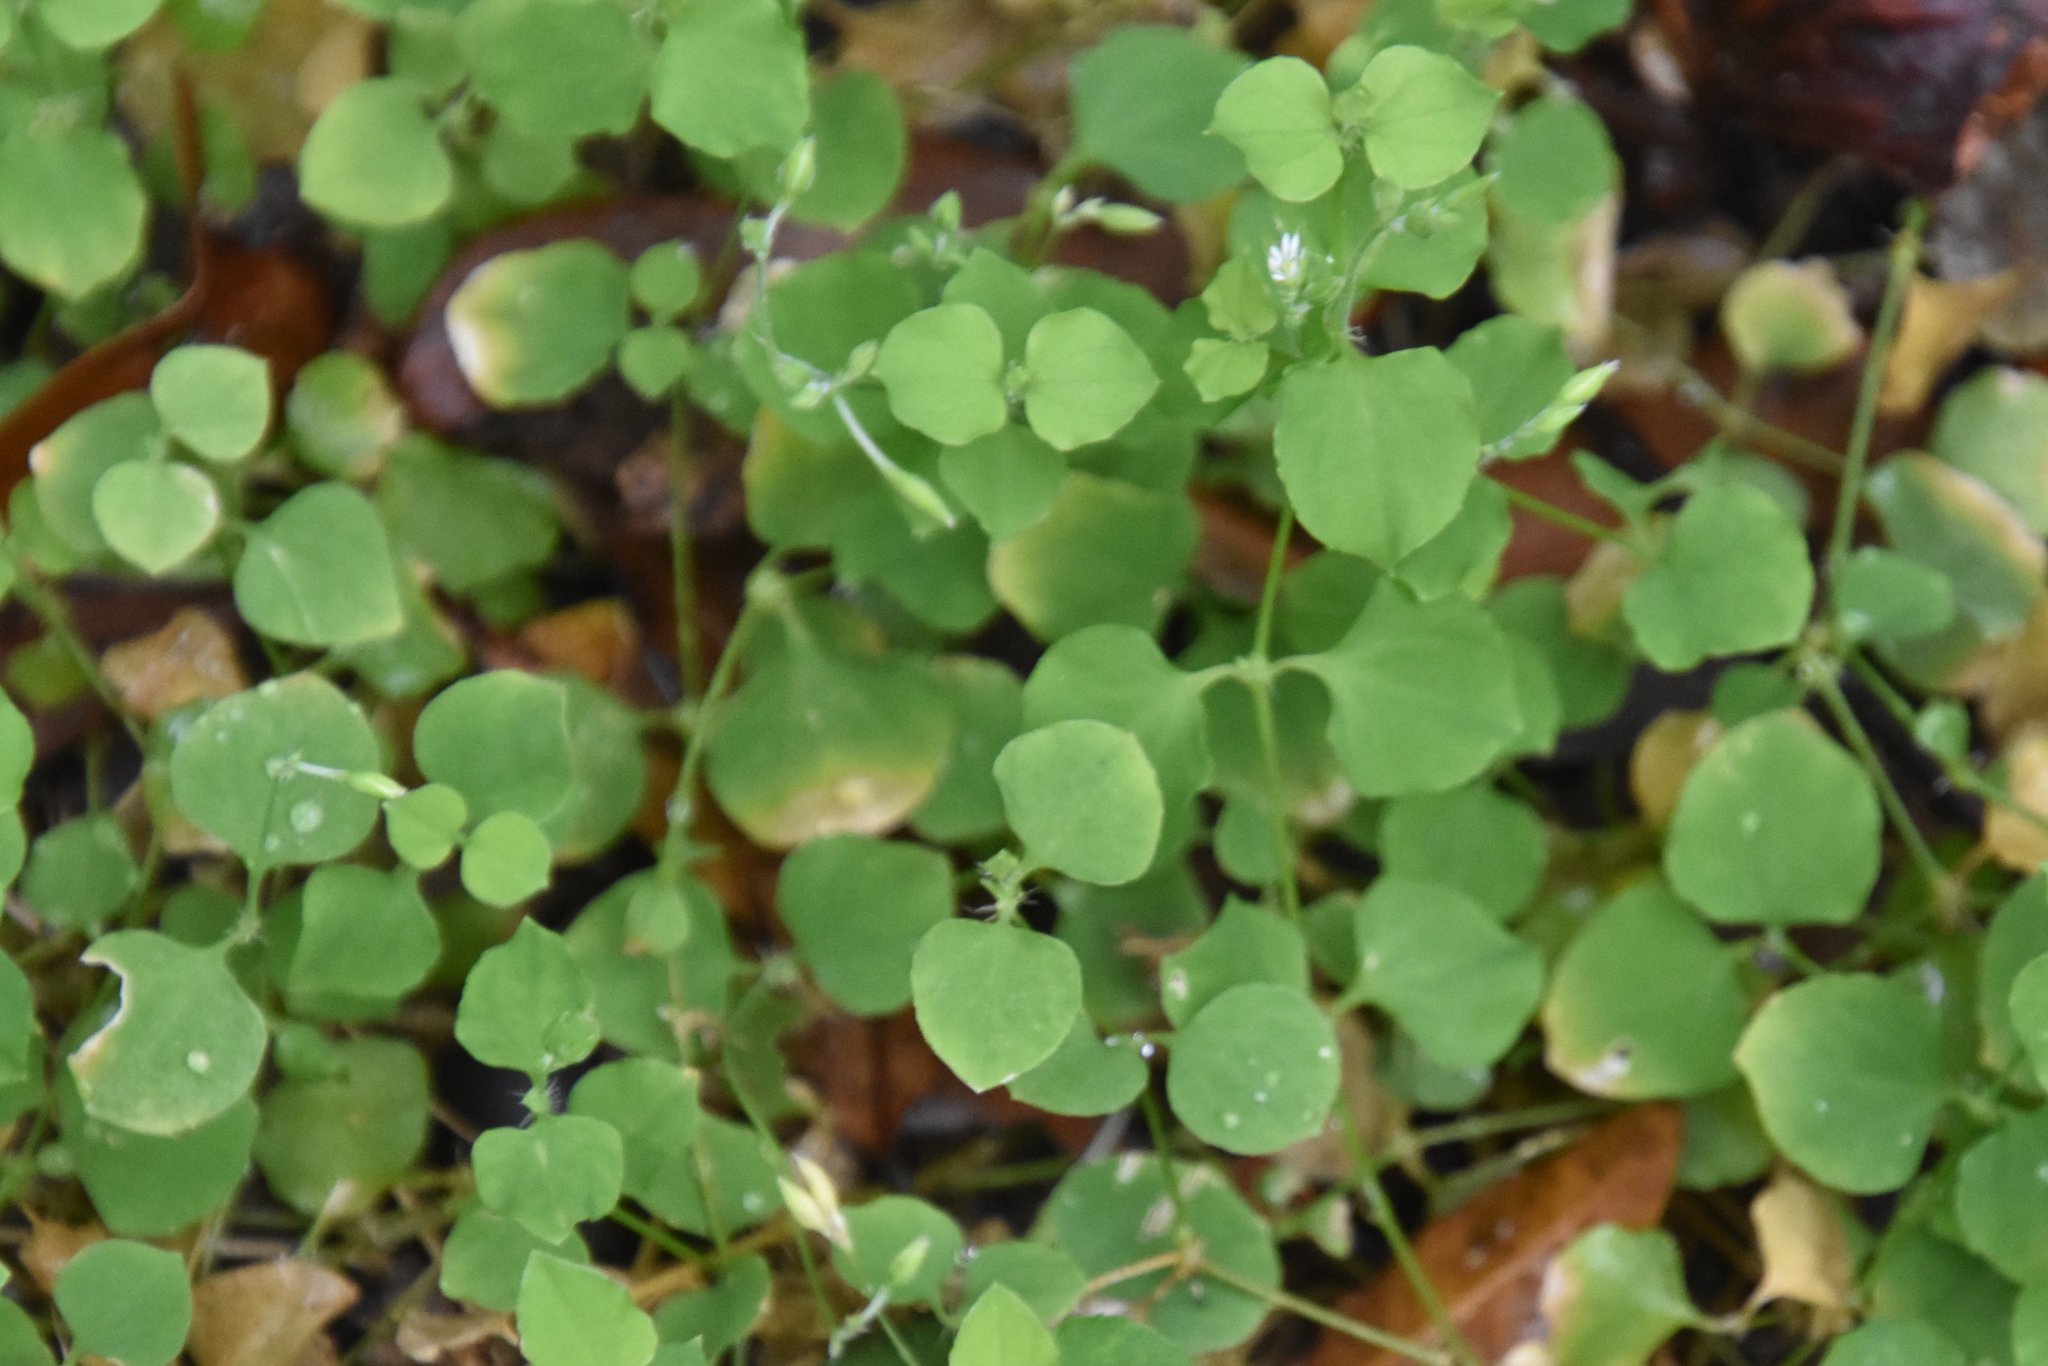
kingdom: Plantae
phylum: Tracheophyta
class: Magnoliopsida
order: Caryophyllales
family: Caryophyllaceae
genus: Drymaria
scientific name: Drymaria cordata
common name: Whitesnow
